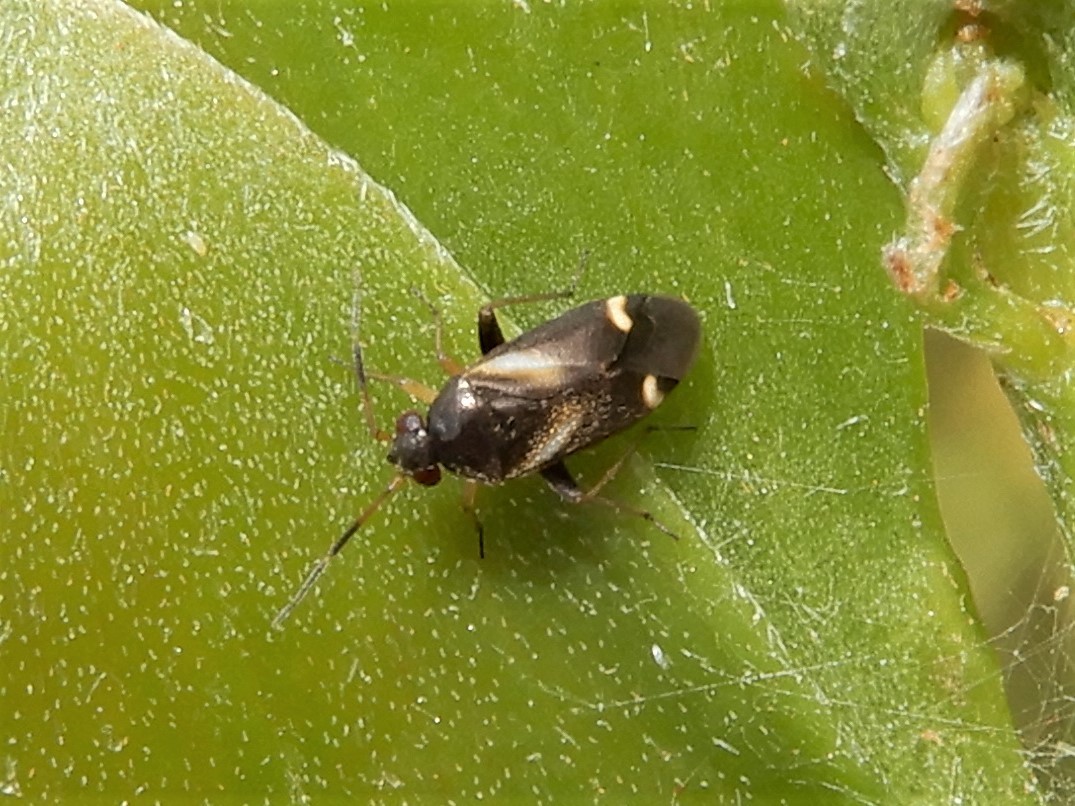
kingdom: Animalia
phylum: Arthropoda
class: Insecta
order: Hemiptera
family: Miridae
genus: Ausejanus
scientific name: Ausejanus albisignatus
